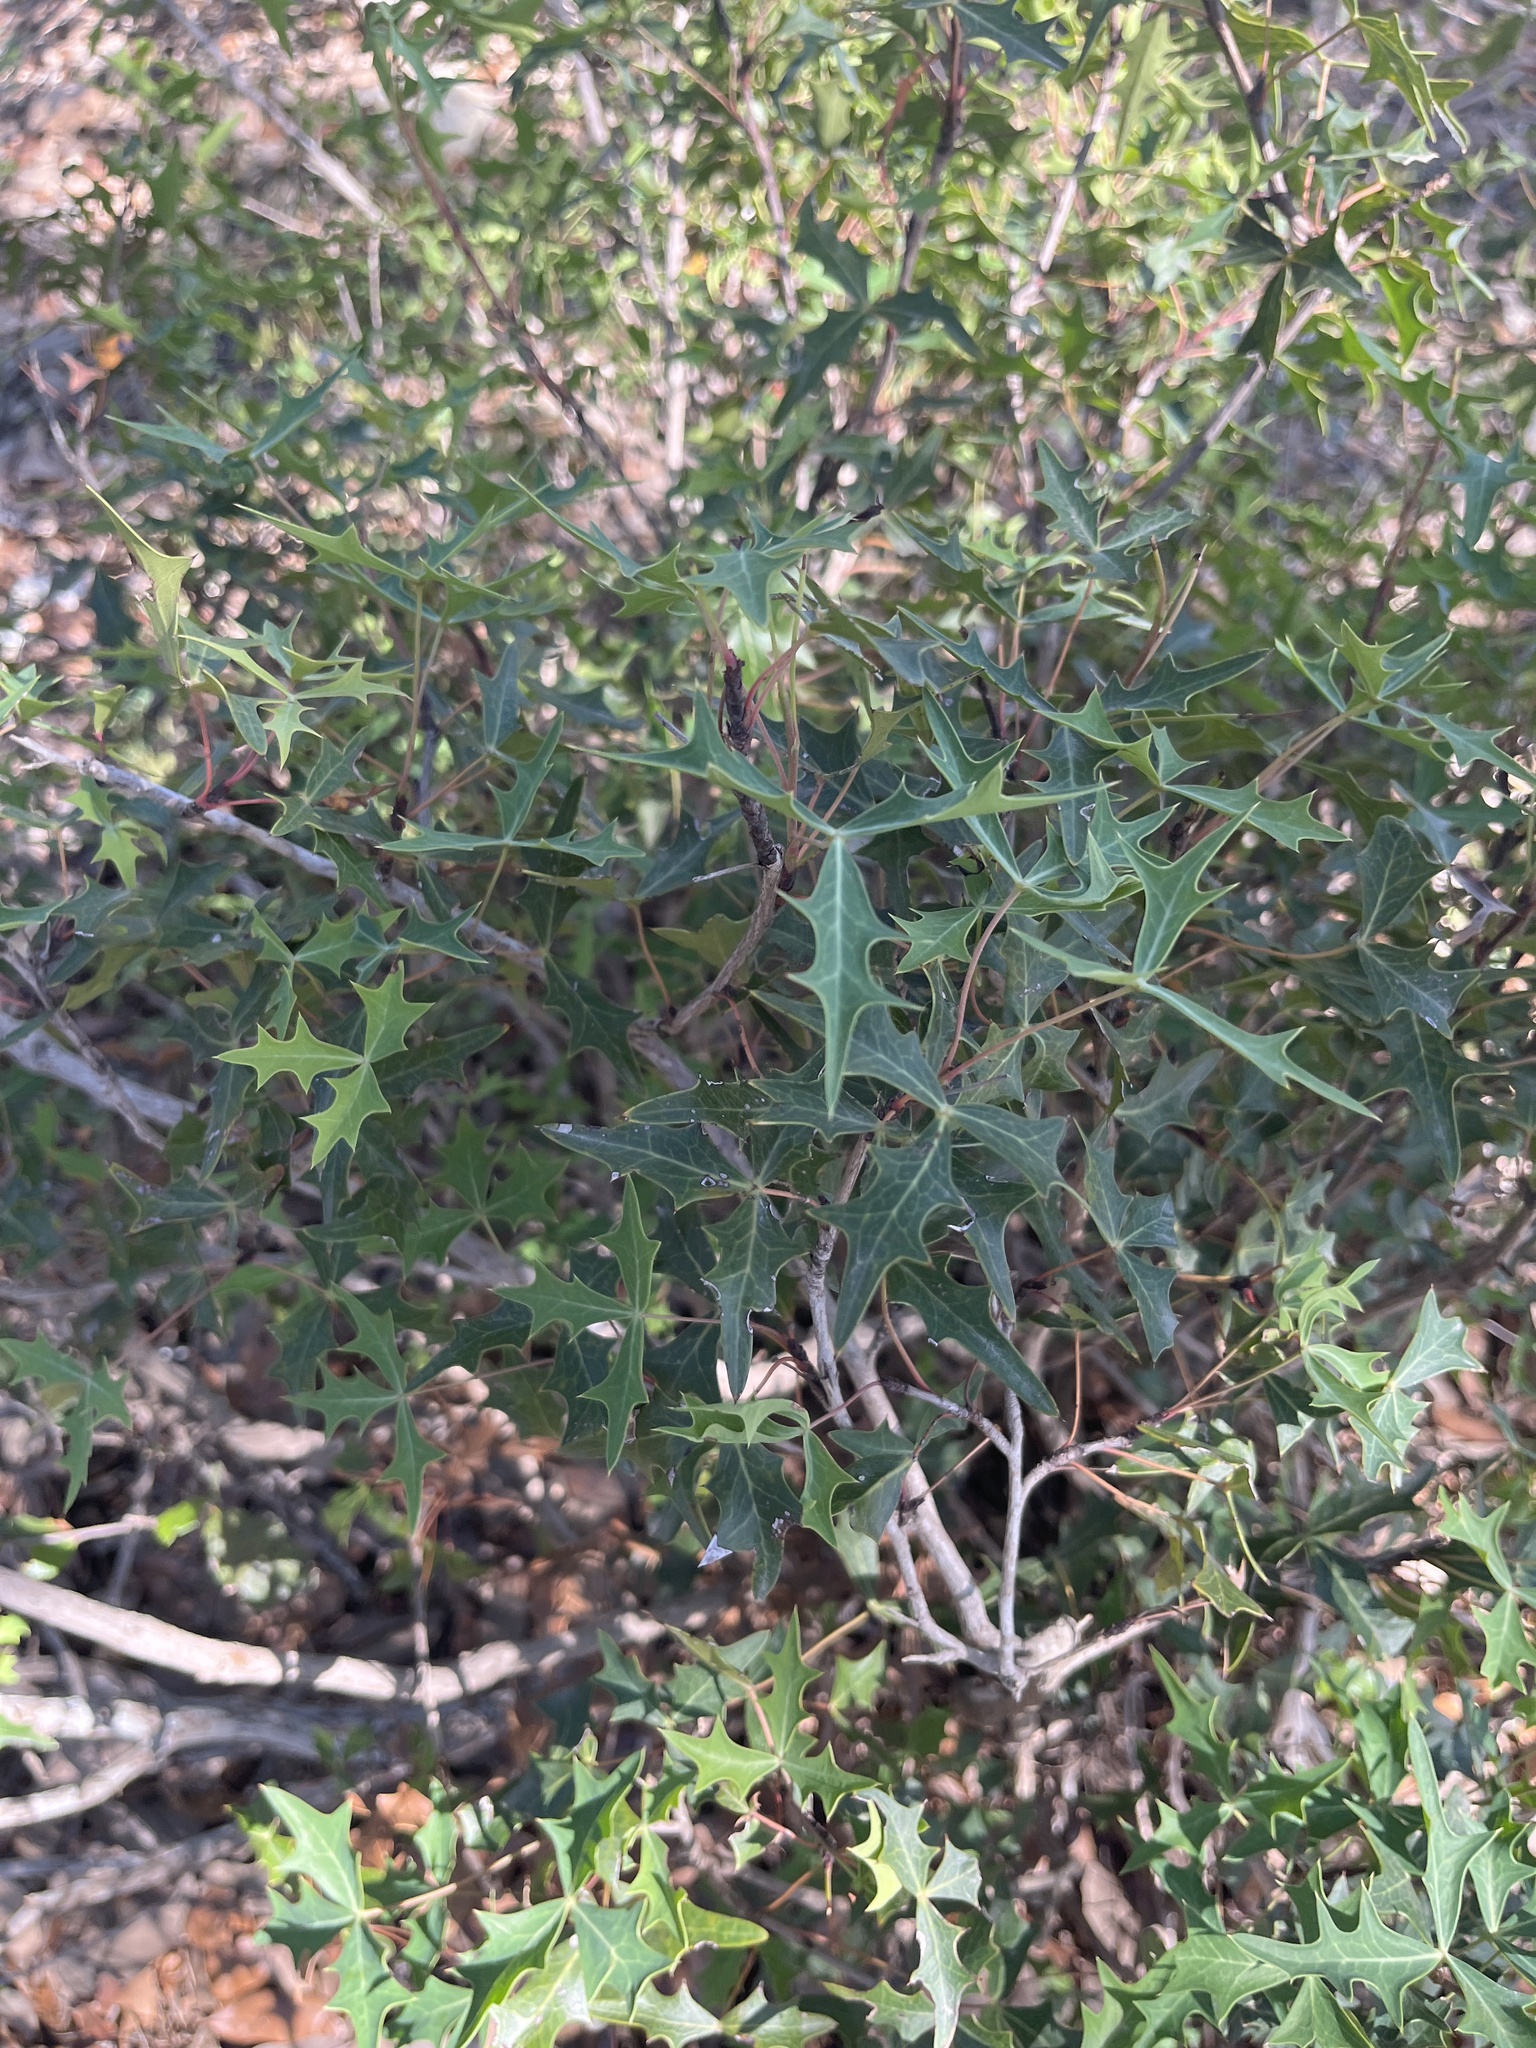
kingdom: Plantae
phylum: Tracheophyta
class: Magnoliopsida
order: Ranunculales
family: Berberidaceae
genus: Alloberberis
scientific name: Alloberberis trifoliolata
